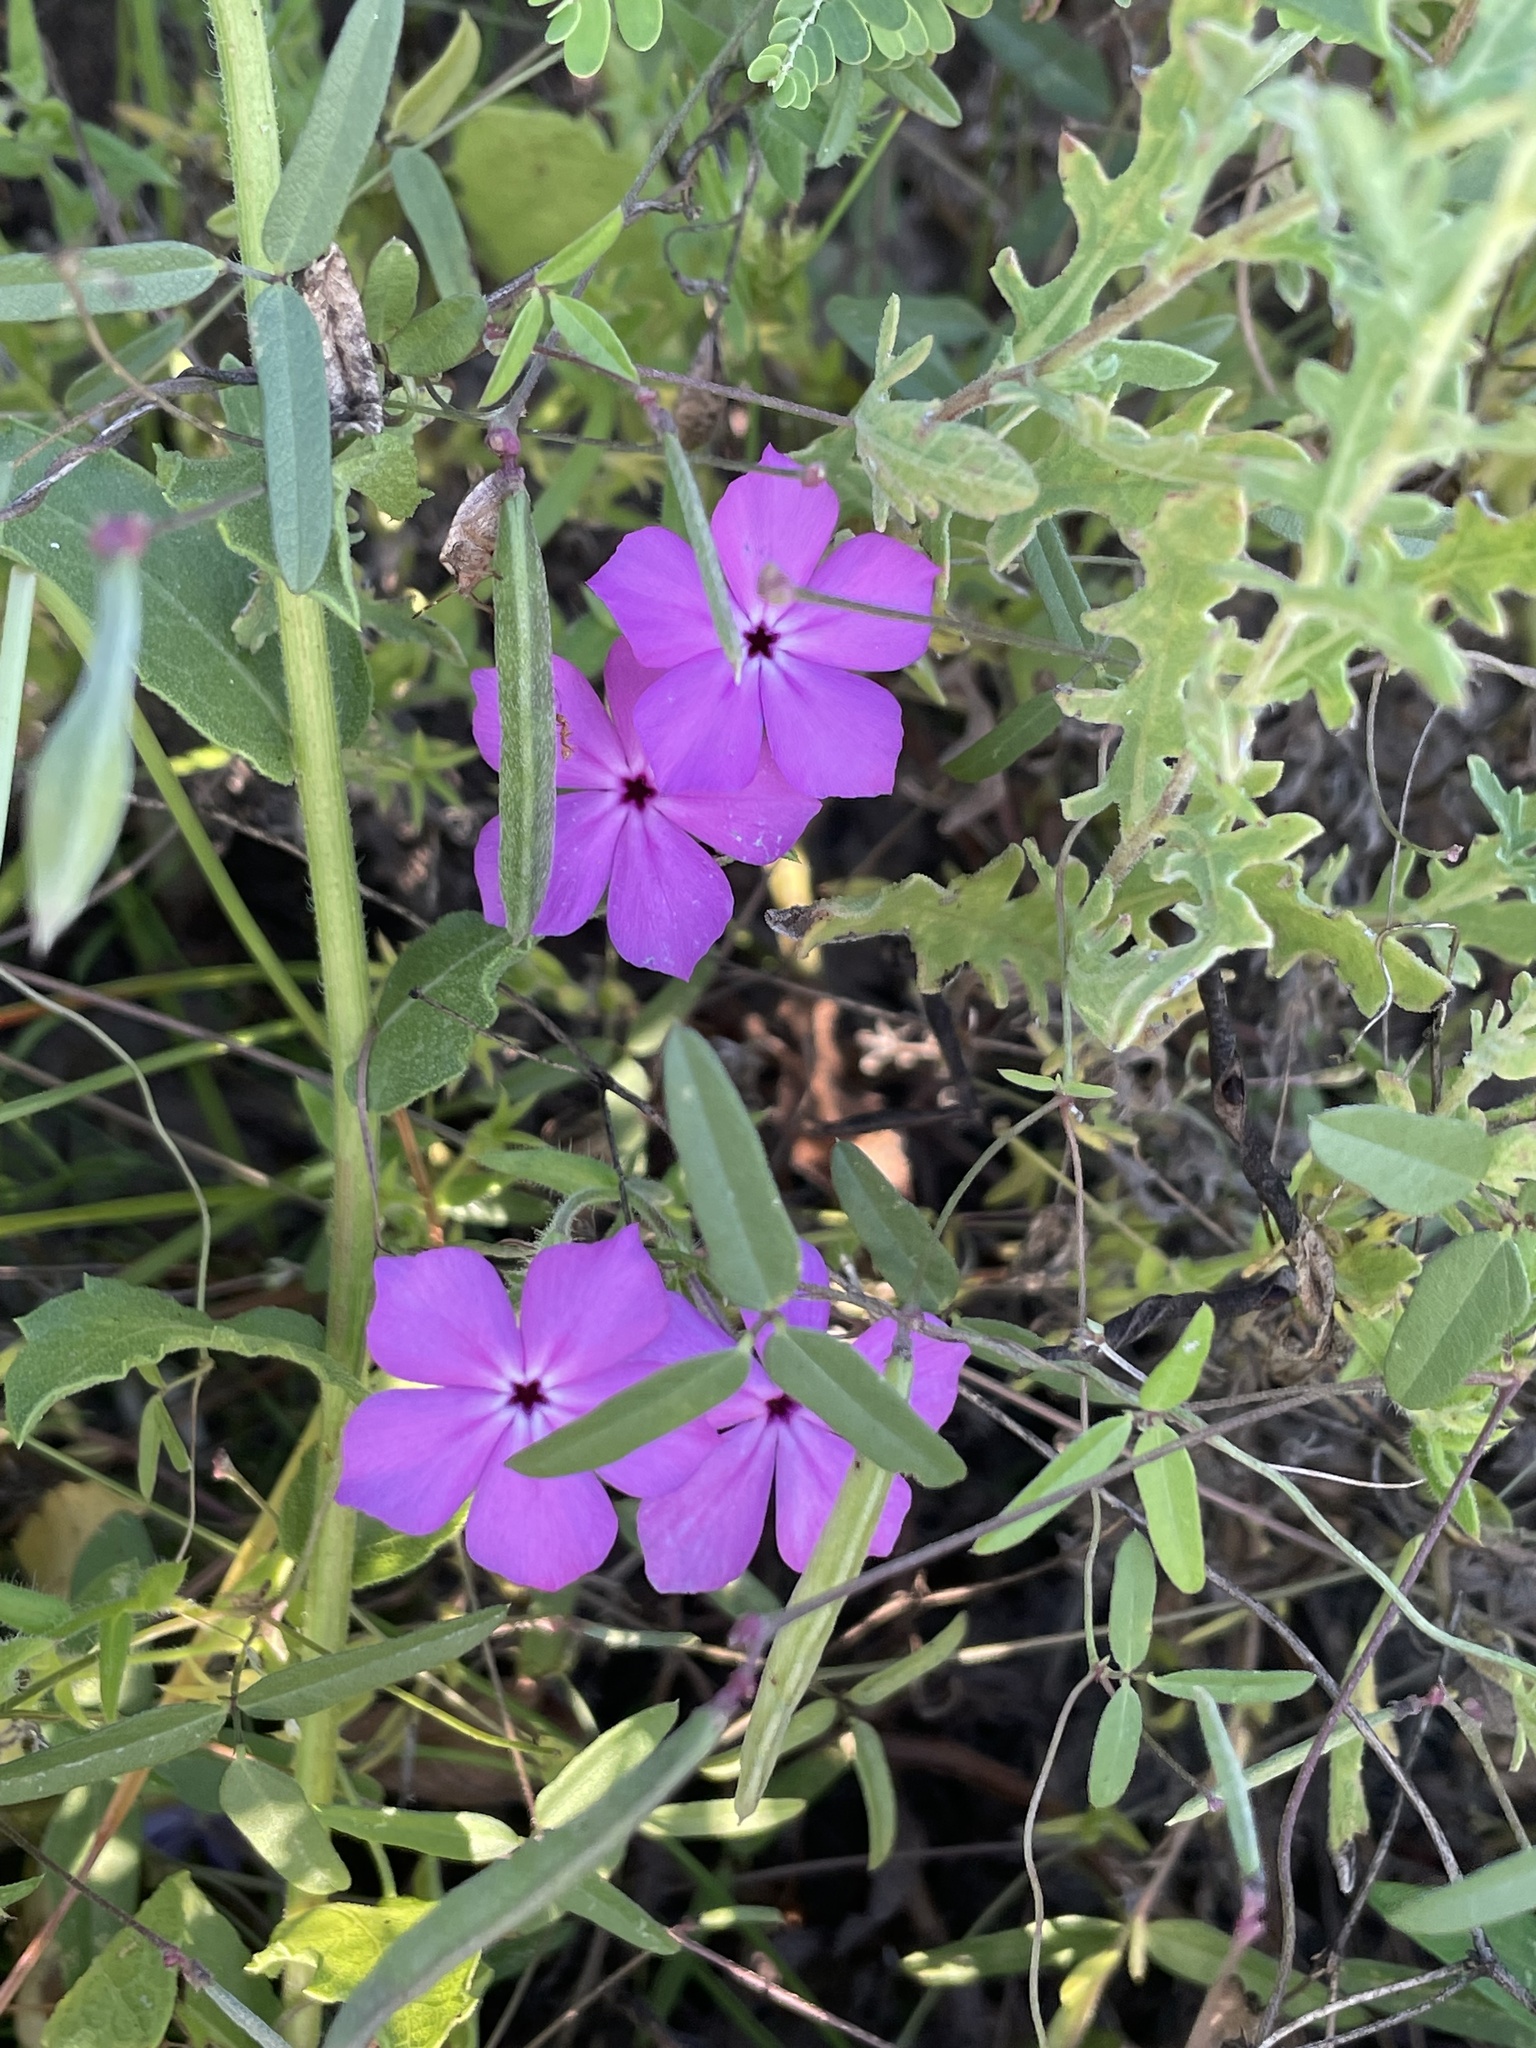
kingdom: Plantae
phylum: Tracheophyta
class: Magnoliopsida
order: Ericales
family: Polemoniaceae
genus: Phlox
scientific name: Phlox glabriflora
